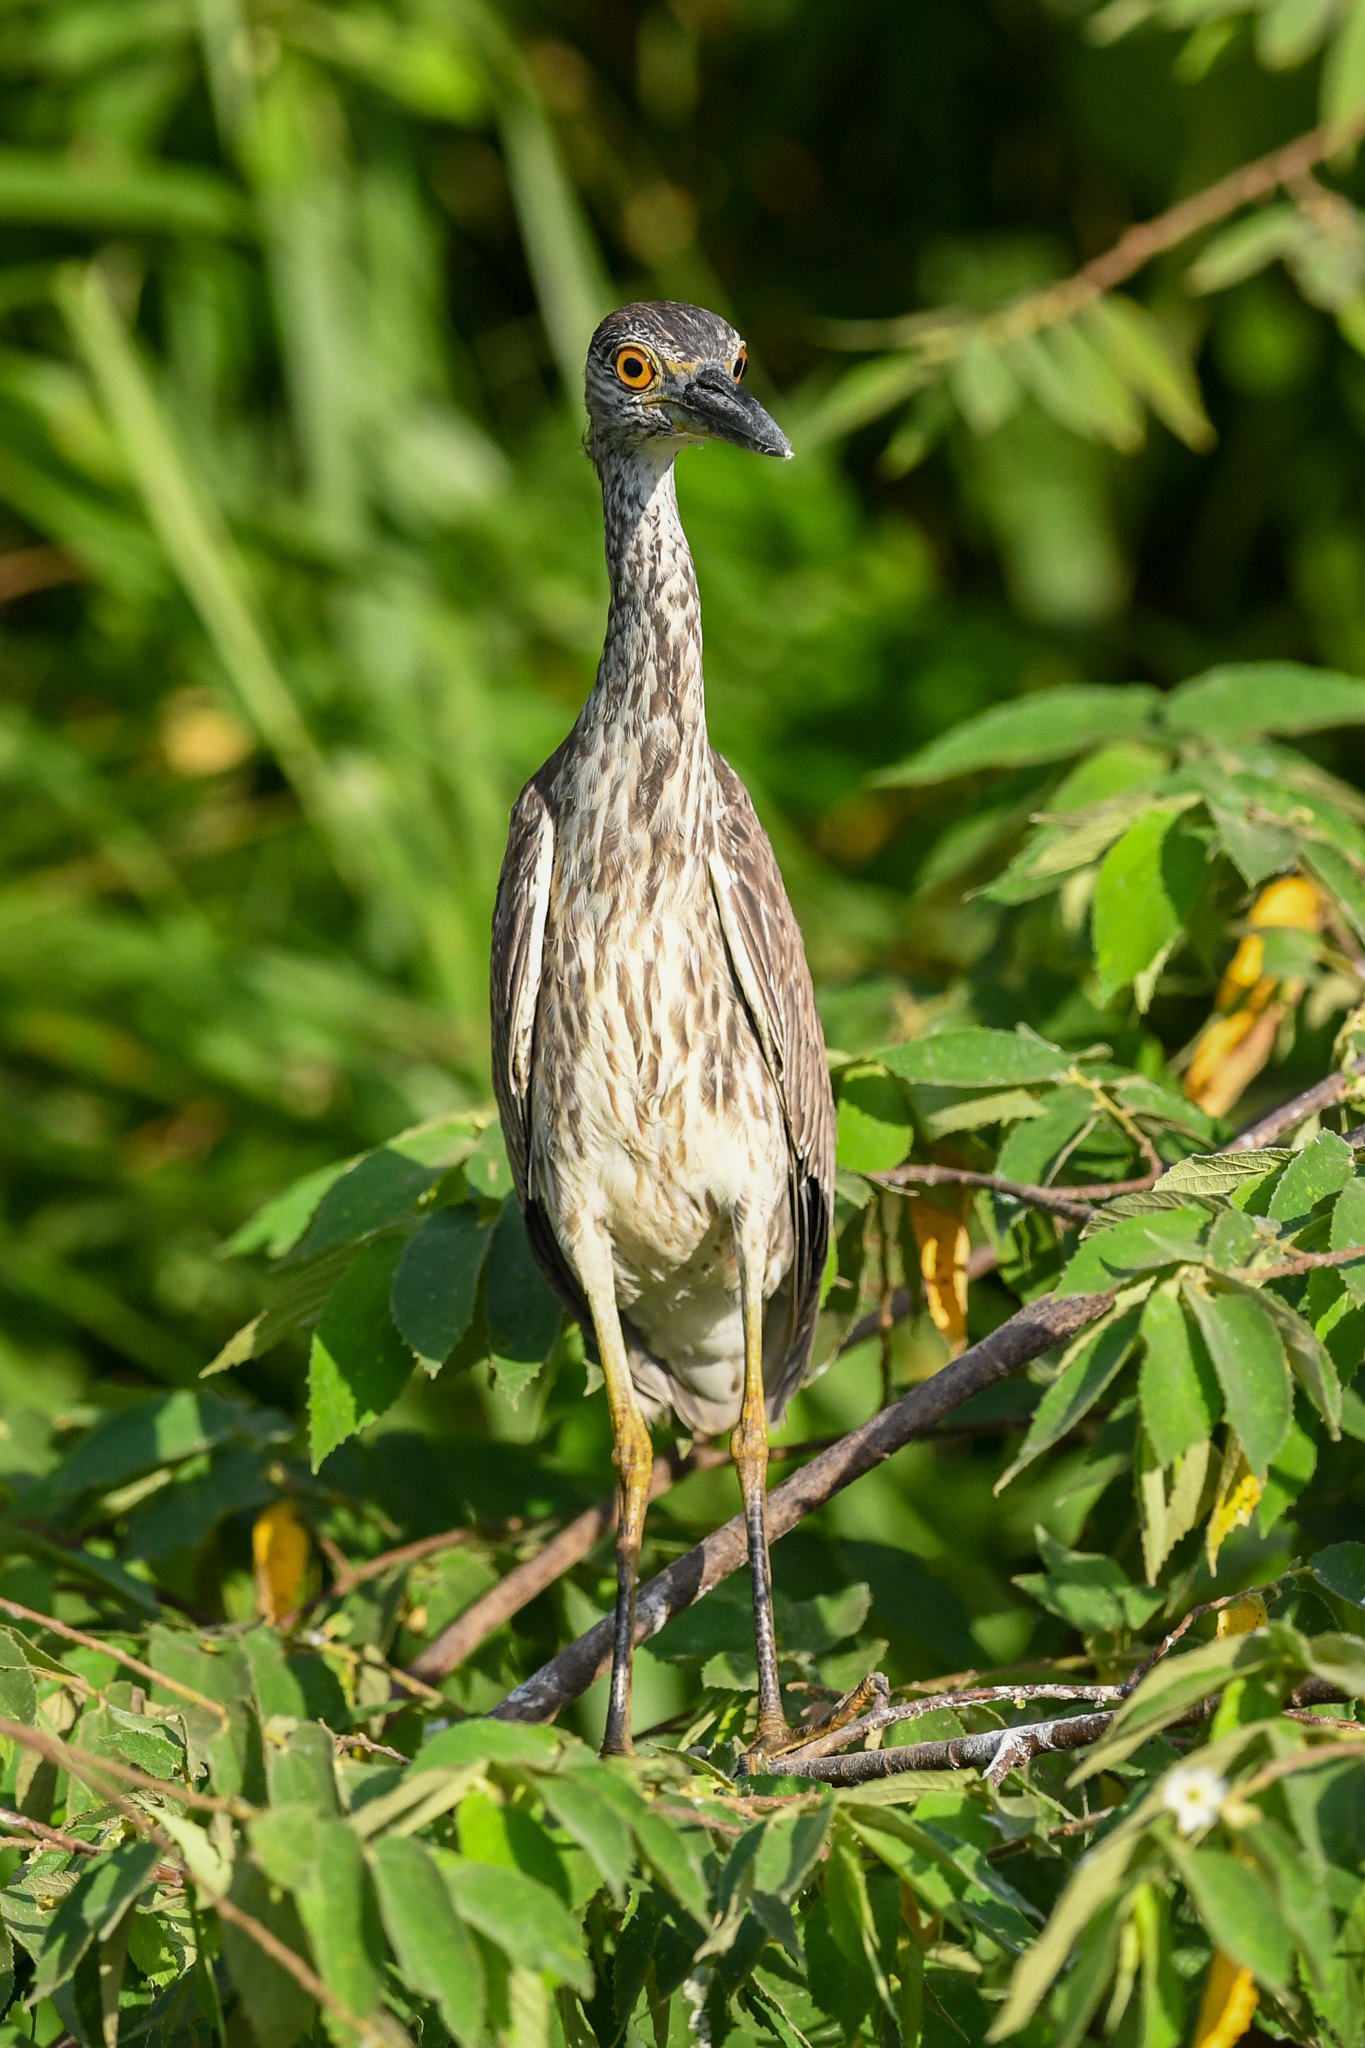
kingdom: Animalia
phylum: Chordata
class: Aves
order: Pelecaniformes
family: Ardeidae
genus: Nyctanassa
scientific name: Nyctanassa violacea
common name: Yellow-crowned night heron
